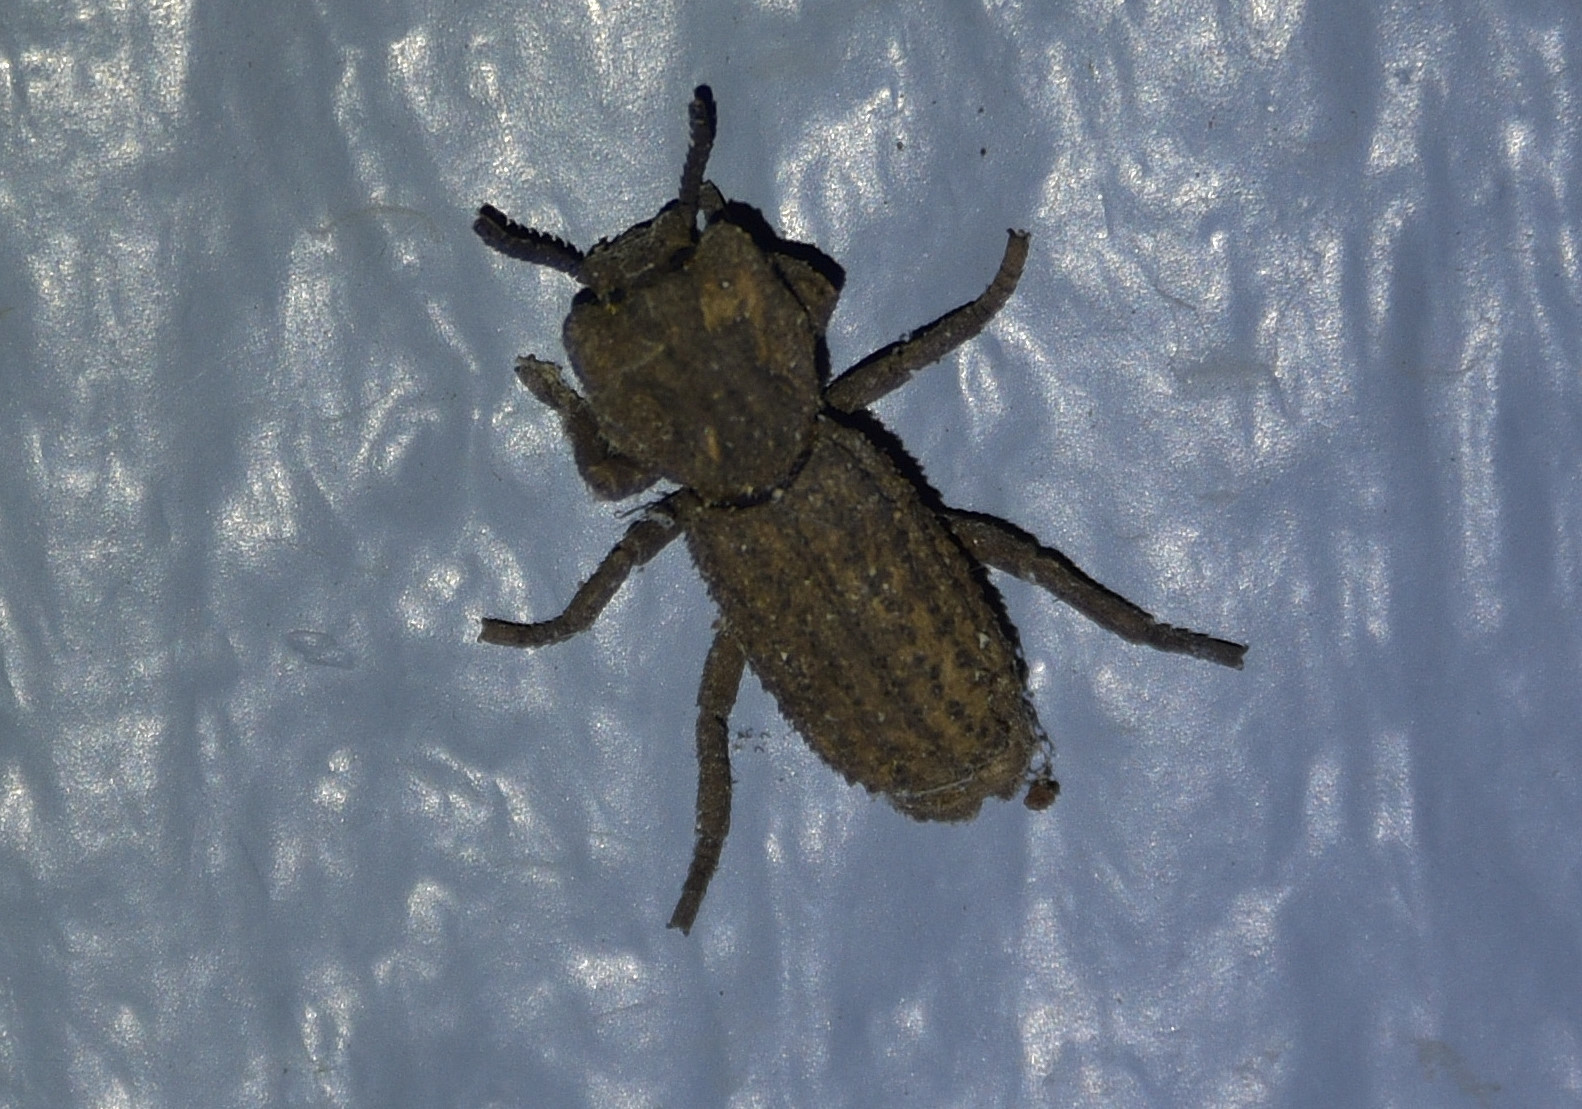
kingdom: Animalia
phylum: Arthropoda
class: Insecta
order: Coleoptera
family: Zopheridae
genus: Sesaspis
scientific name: Sesaspis
